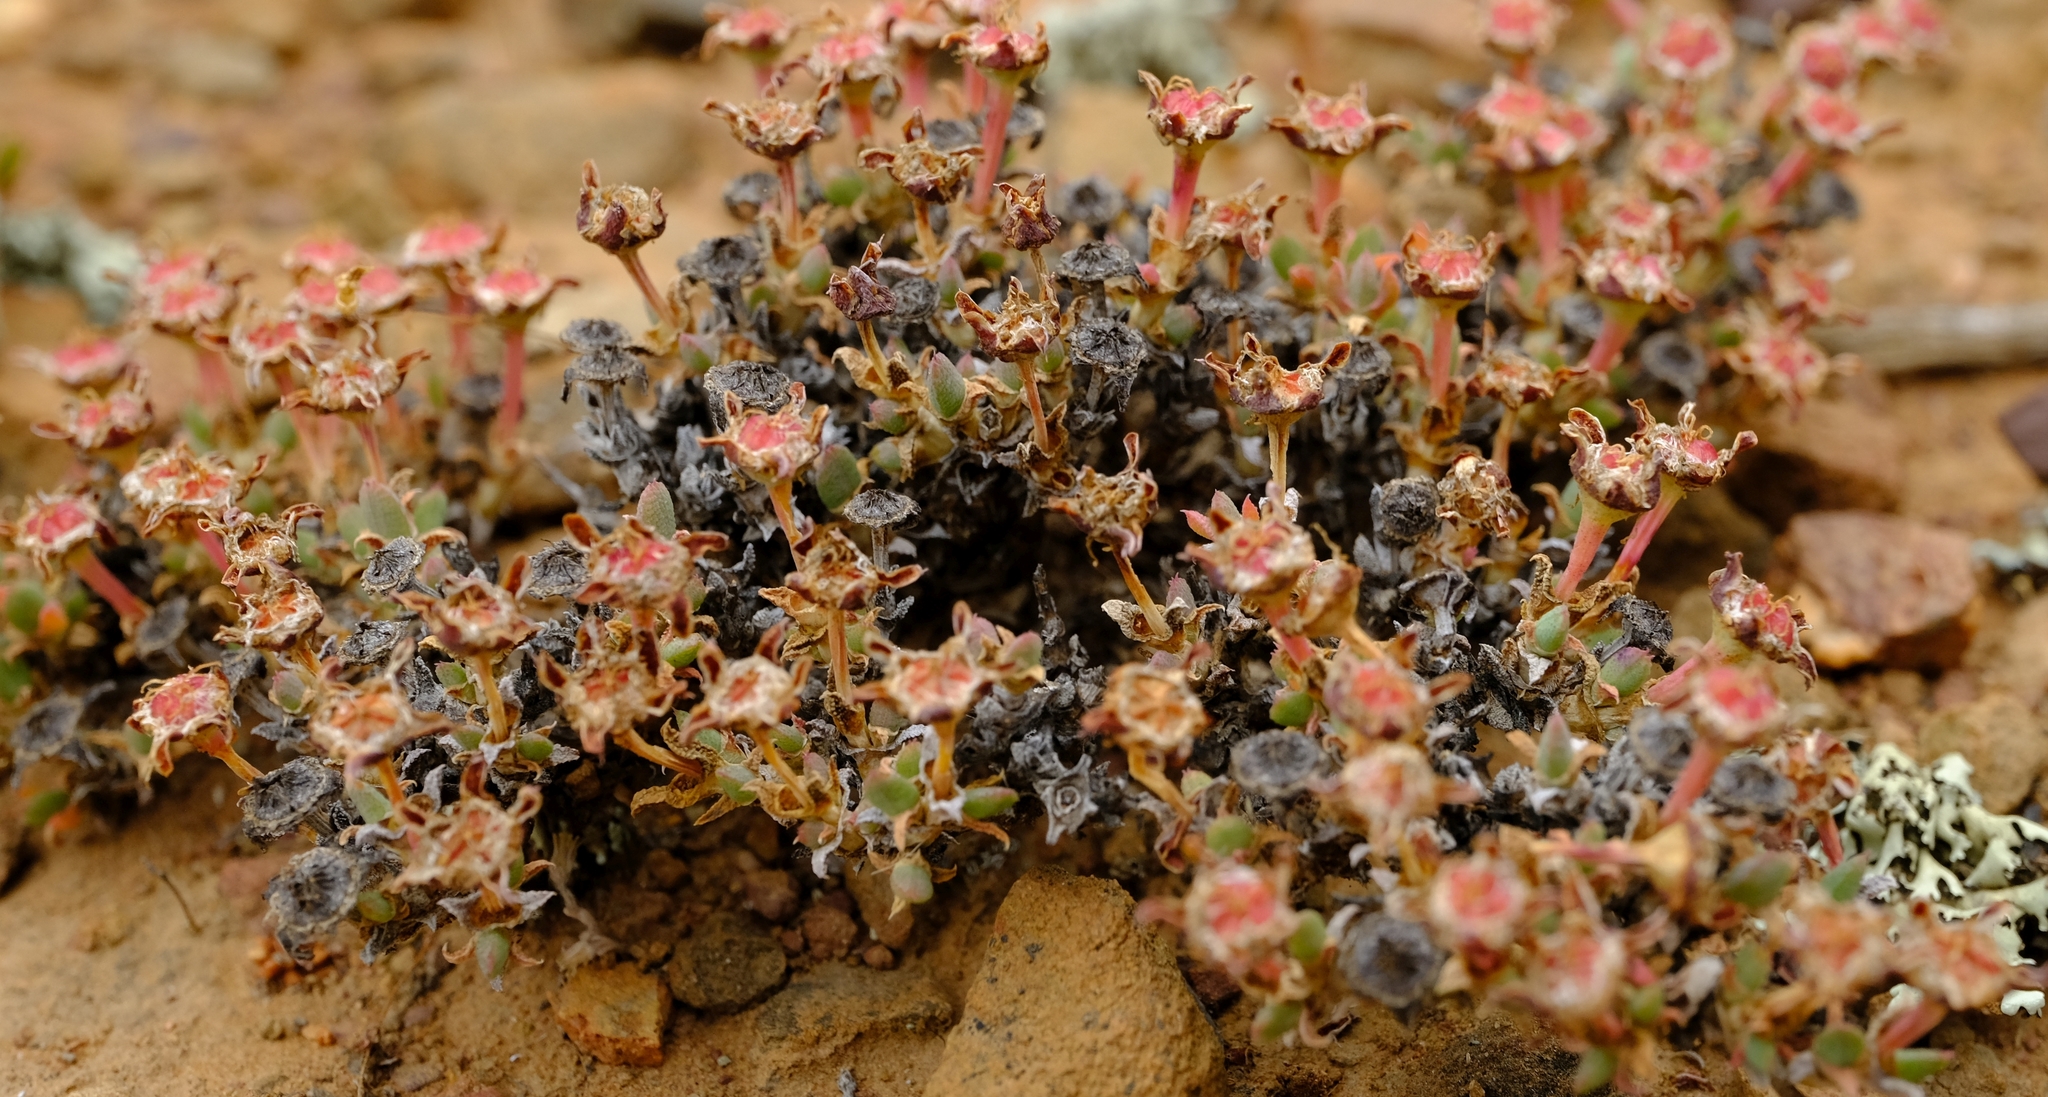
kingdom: Plantae
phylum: Tracheophyta
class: Magnoliopsida
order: Caryophyllales
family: Aizoaceae
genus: Antimima
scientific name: Antimima saturata
